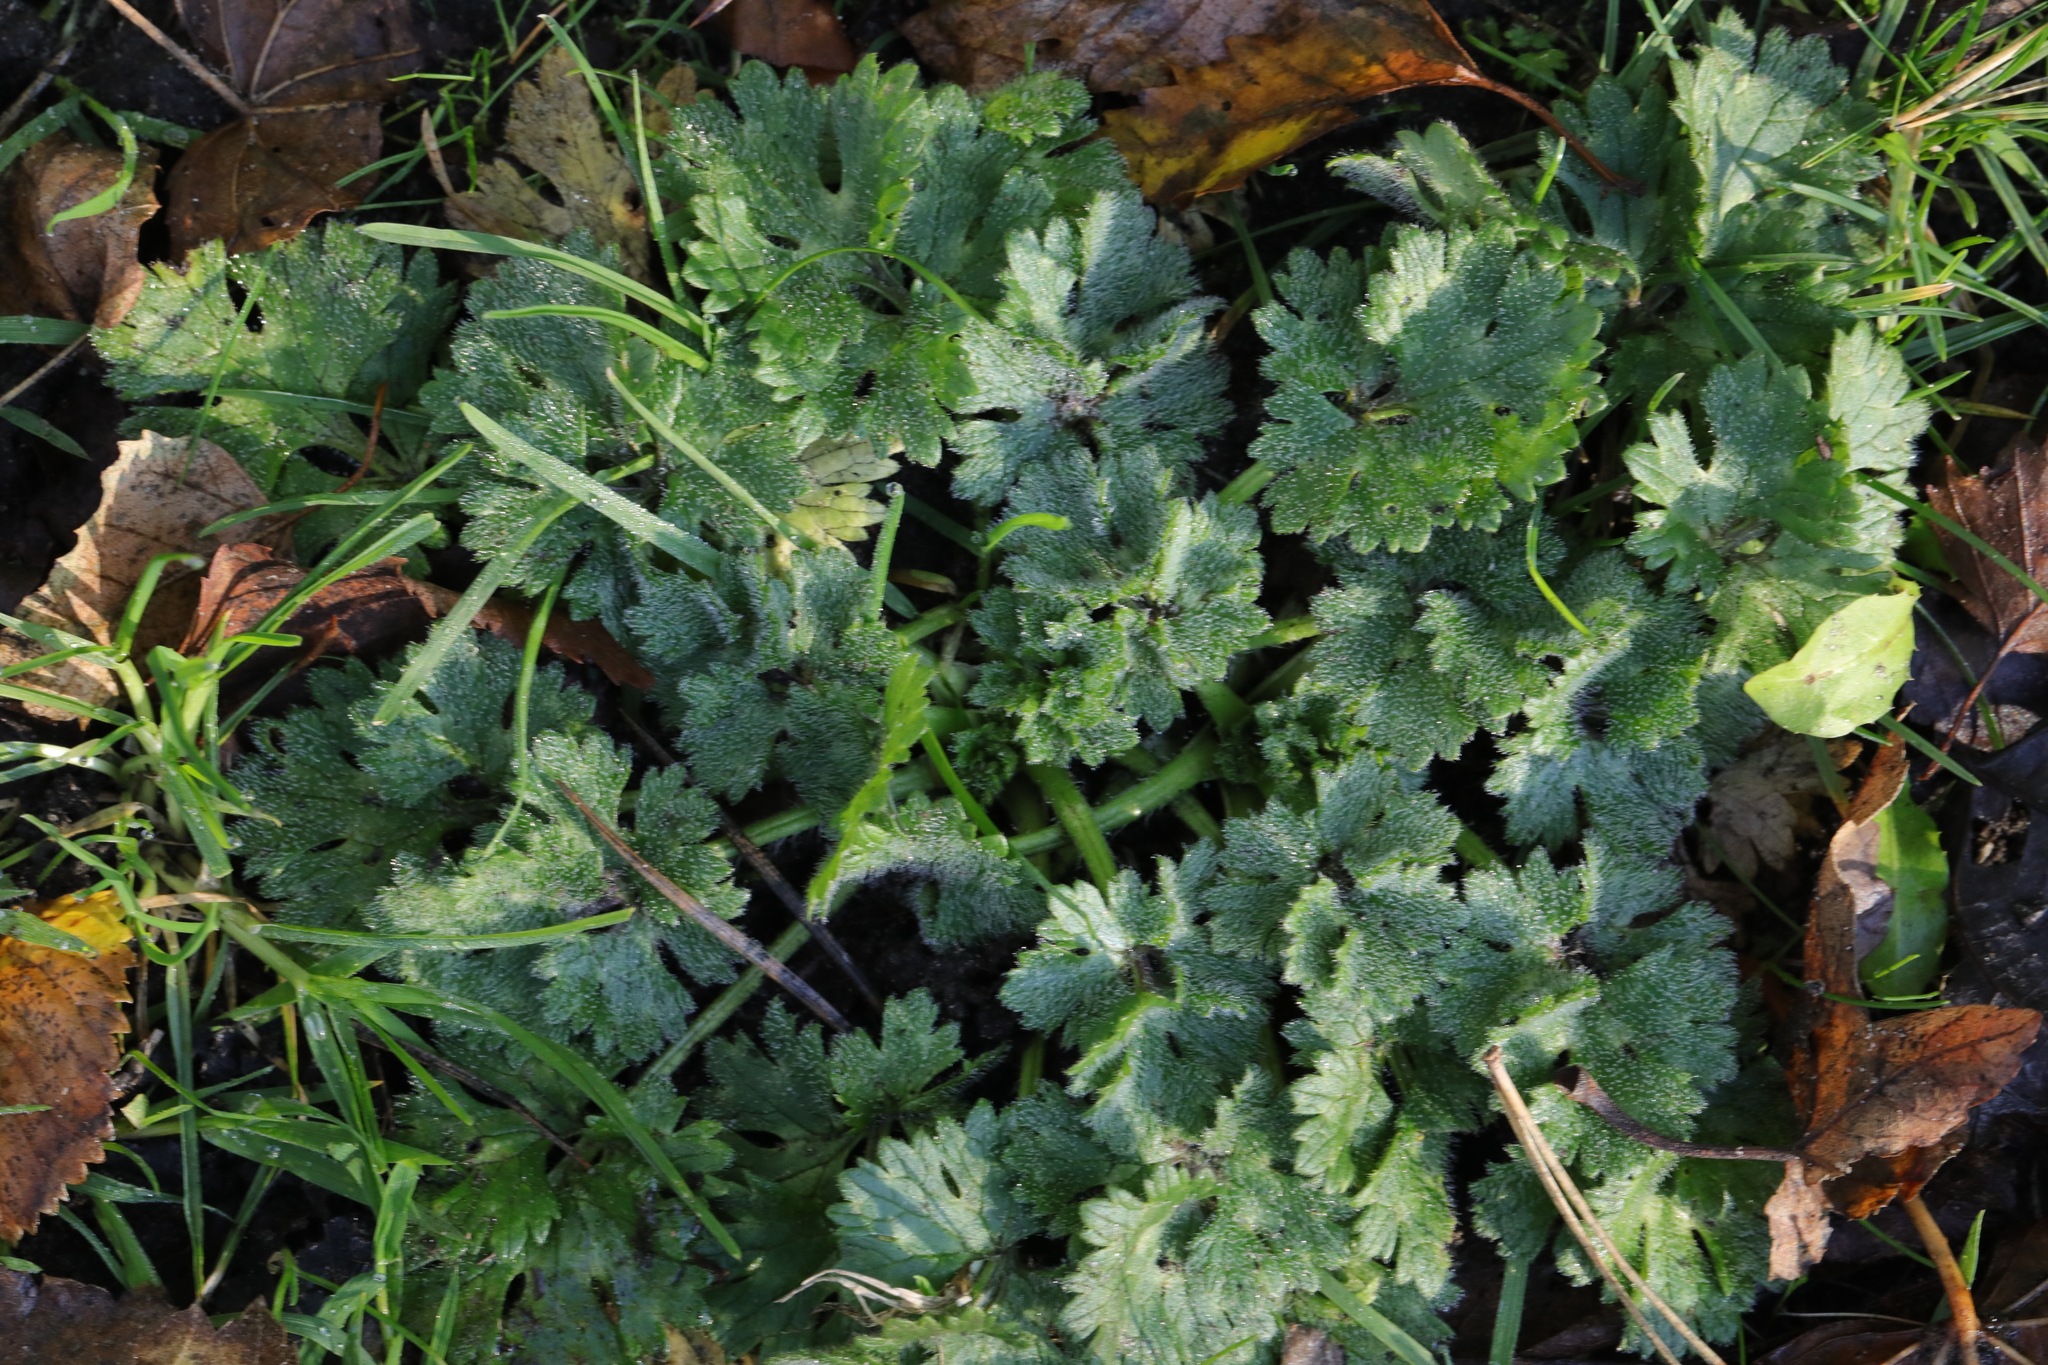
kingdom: Plantae
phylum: Tracheophyta
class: Magnoliopsida
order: Ranunculales
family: Ranunculaceae
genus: Ranunculus
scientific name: Ranunculus bulbosus
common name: Bulbous buttercup
